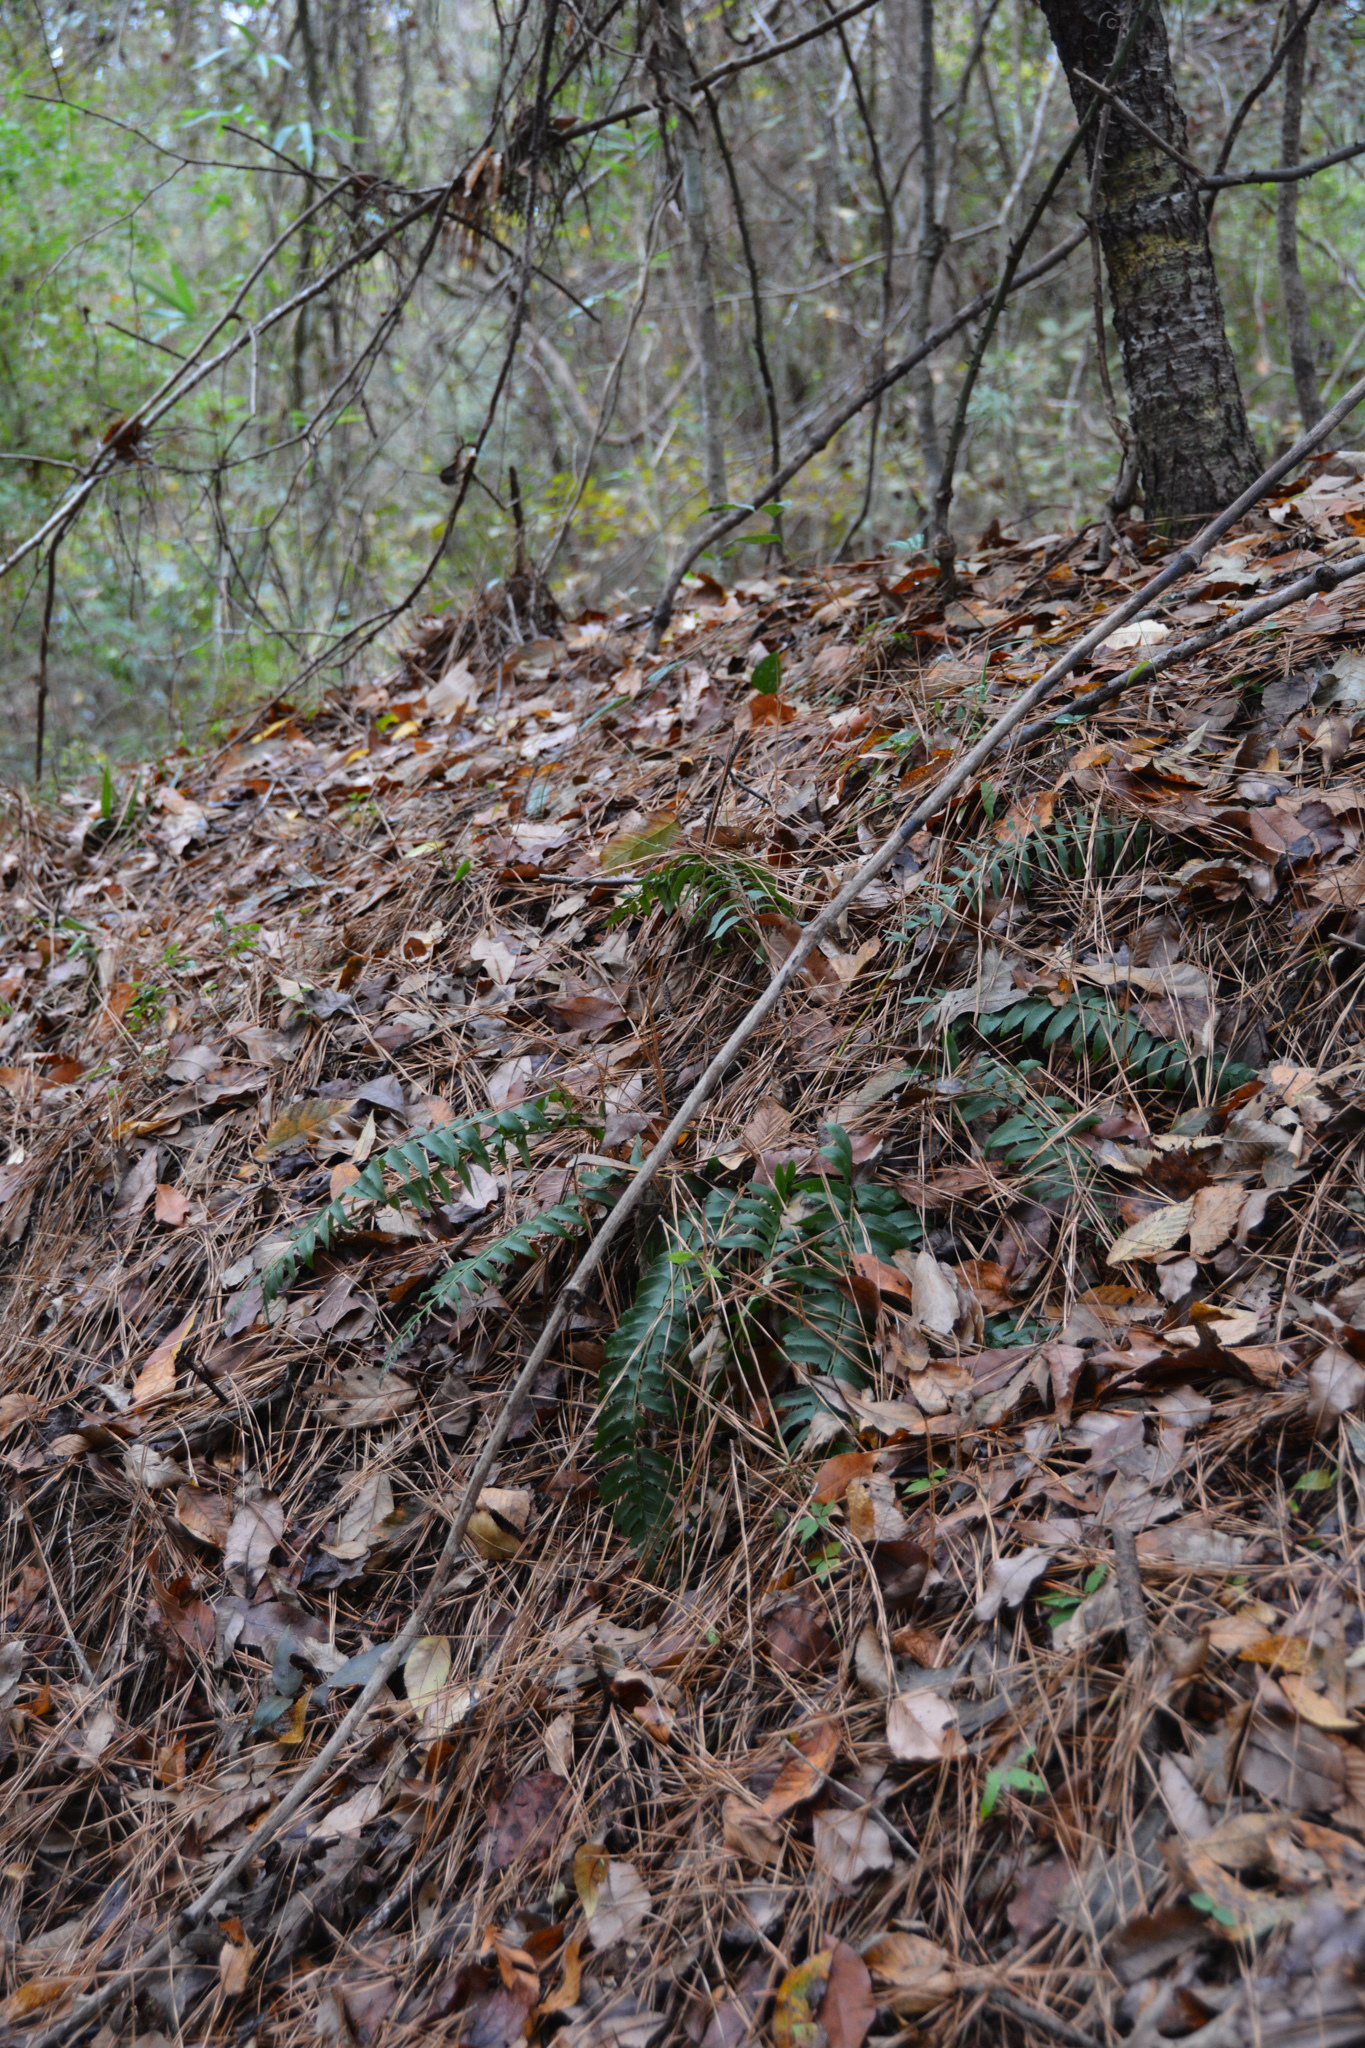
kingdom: Plantae
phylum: Tracheophyta
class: Polypodiopsida
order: Polypodiales
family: Dryopteridaceae
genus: Polystichum
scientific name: Polystichum acrostichoides
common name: Christmas fern
